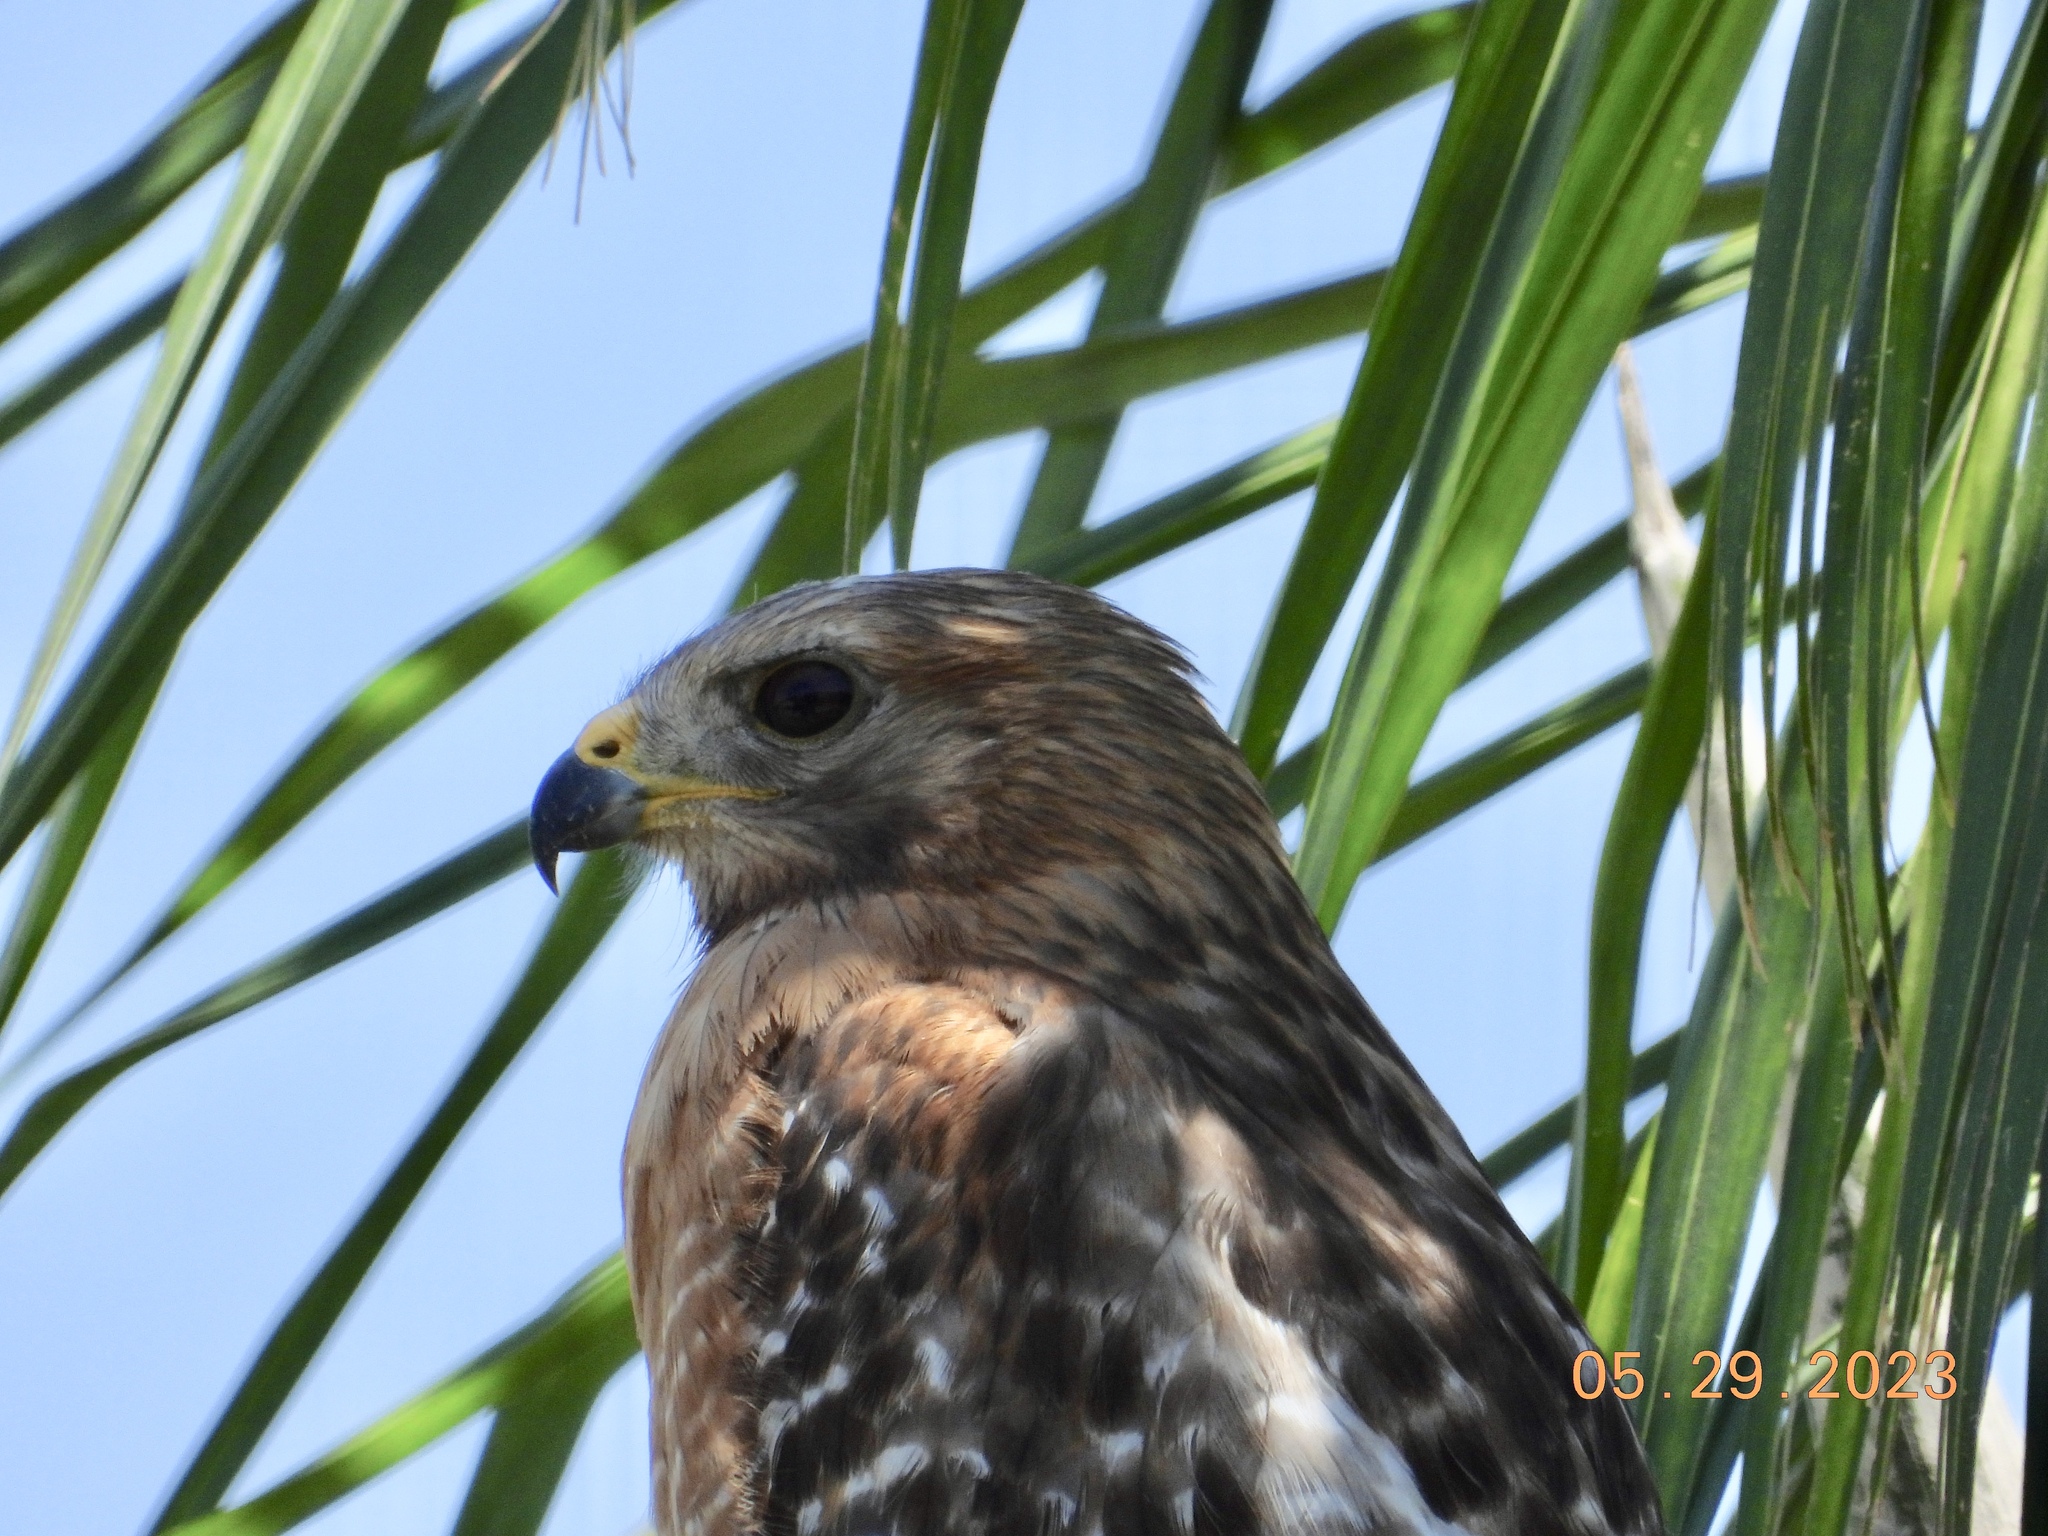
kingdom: Animalia
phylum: Chordata
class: Aves
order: Accipitriformes
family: Accipitridae
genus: Buteo
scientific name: Buteo lineatus
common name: Red-shouldered hawk
